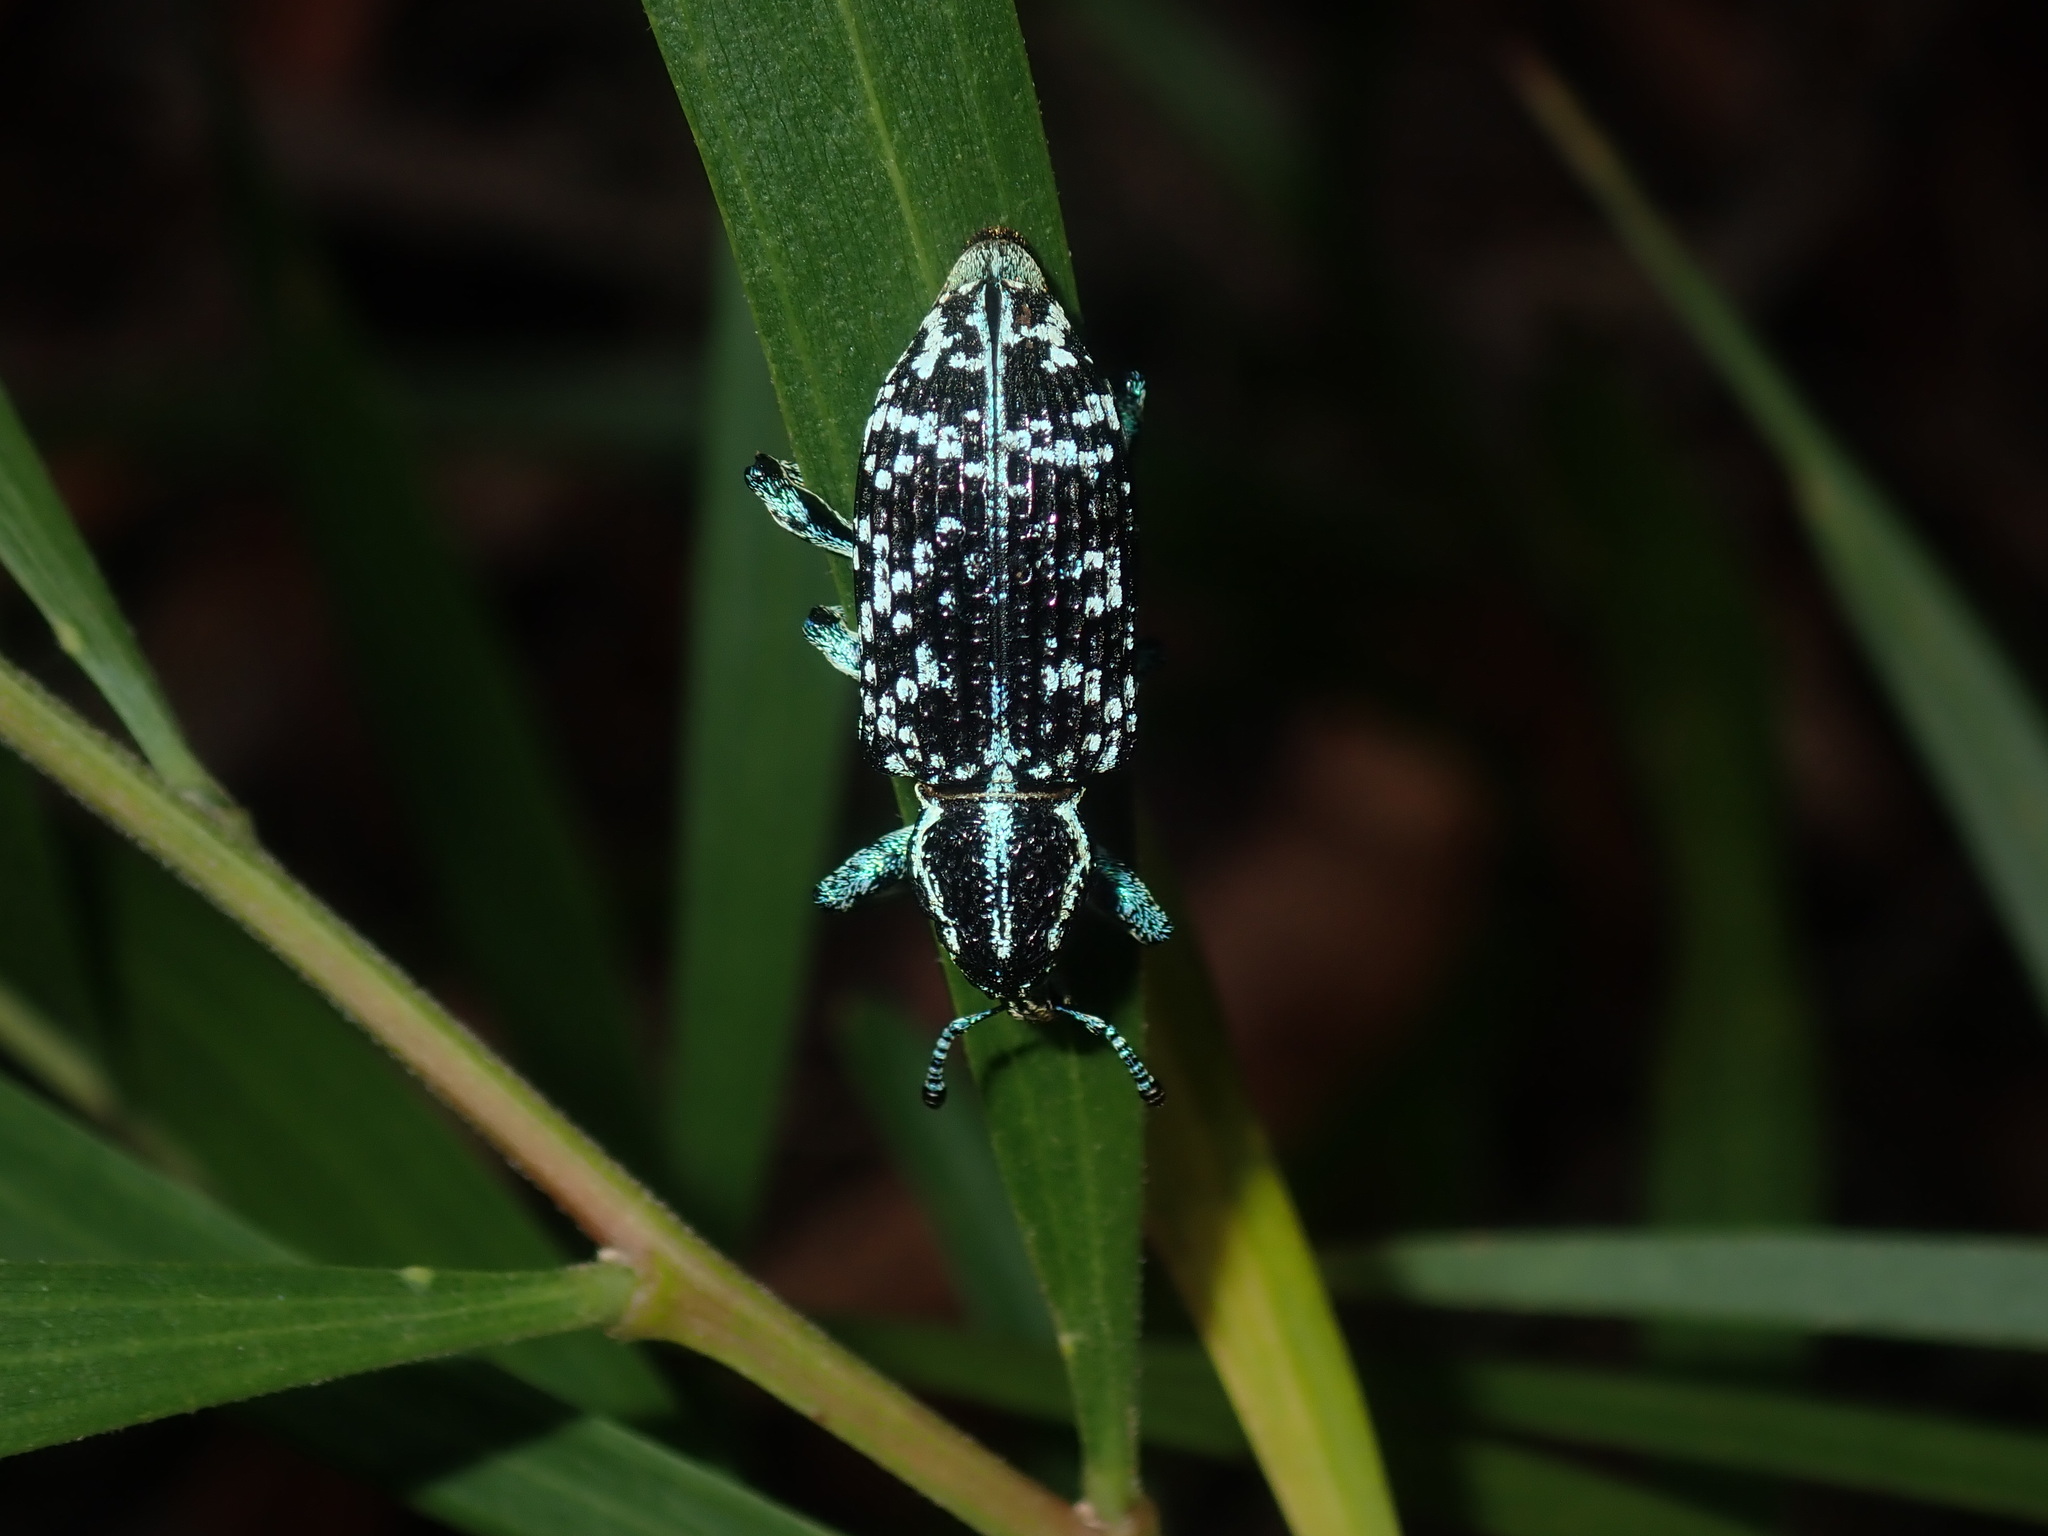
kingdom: Animalia
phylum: Arthropoda
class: Insecta
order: Coleoptera
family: Curculionidae
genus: Chrysolopus
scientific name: Chrysolopus spectabilis
